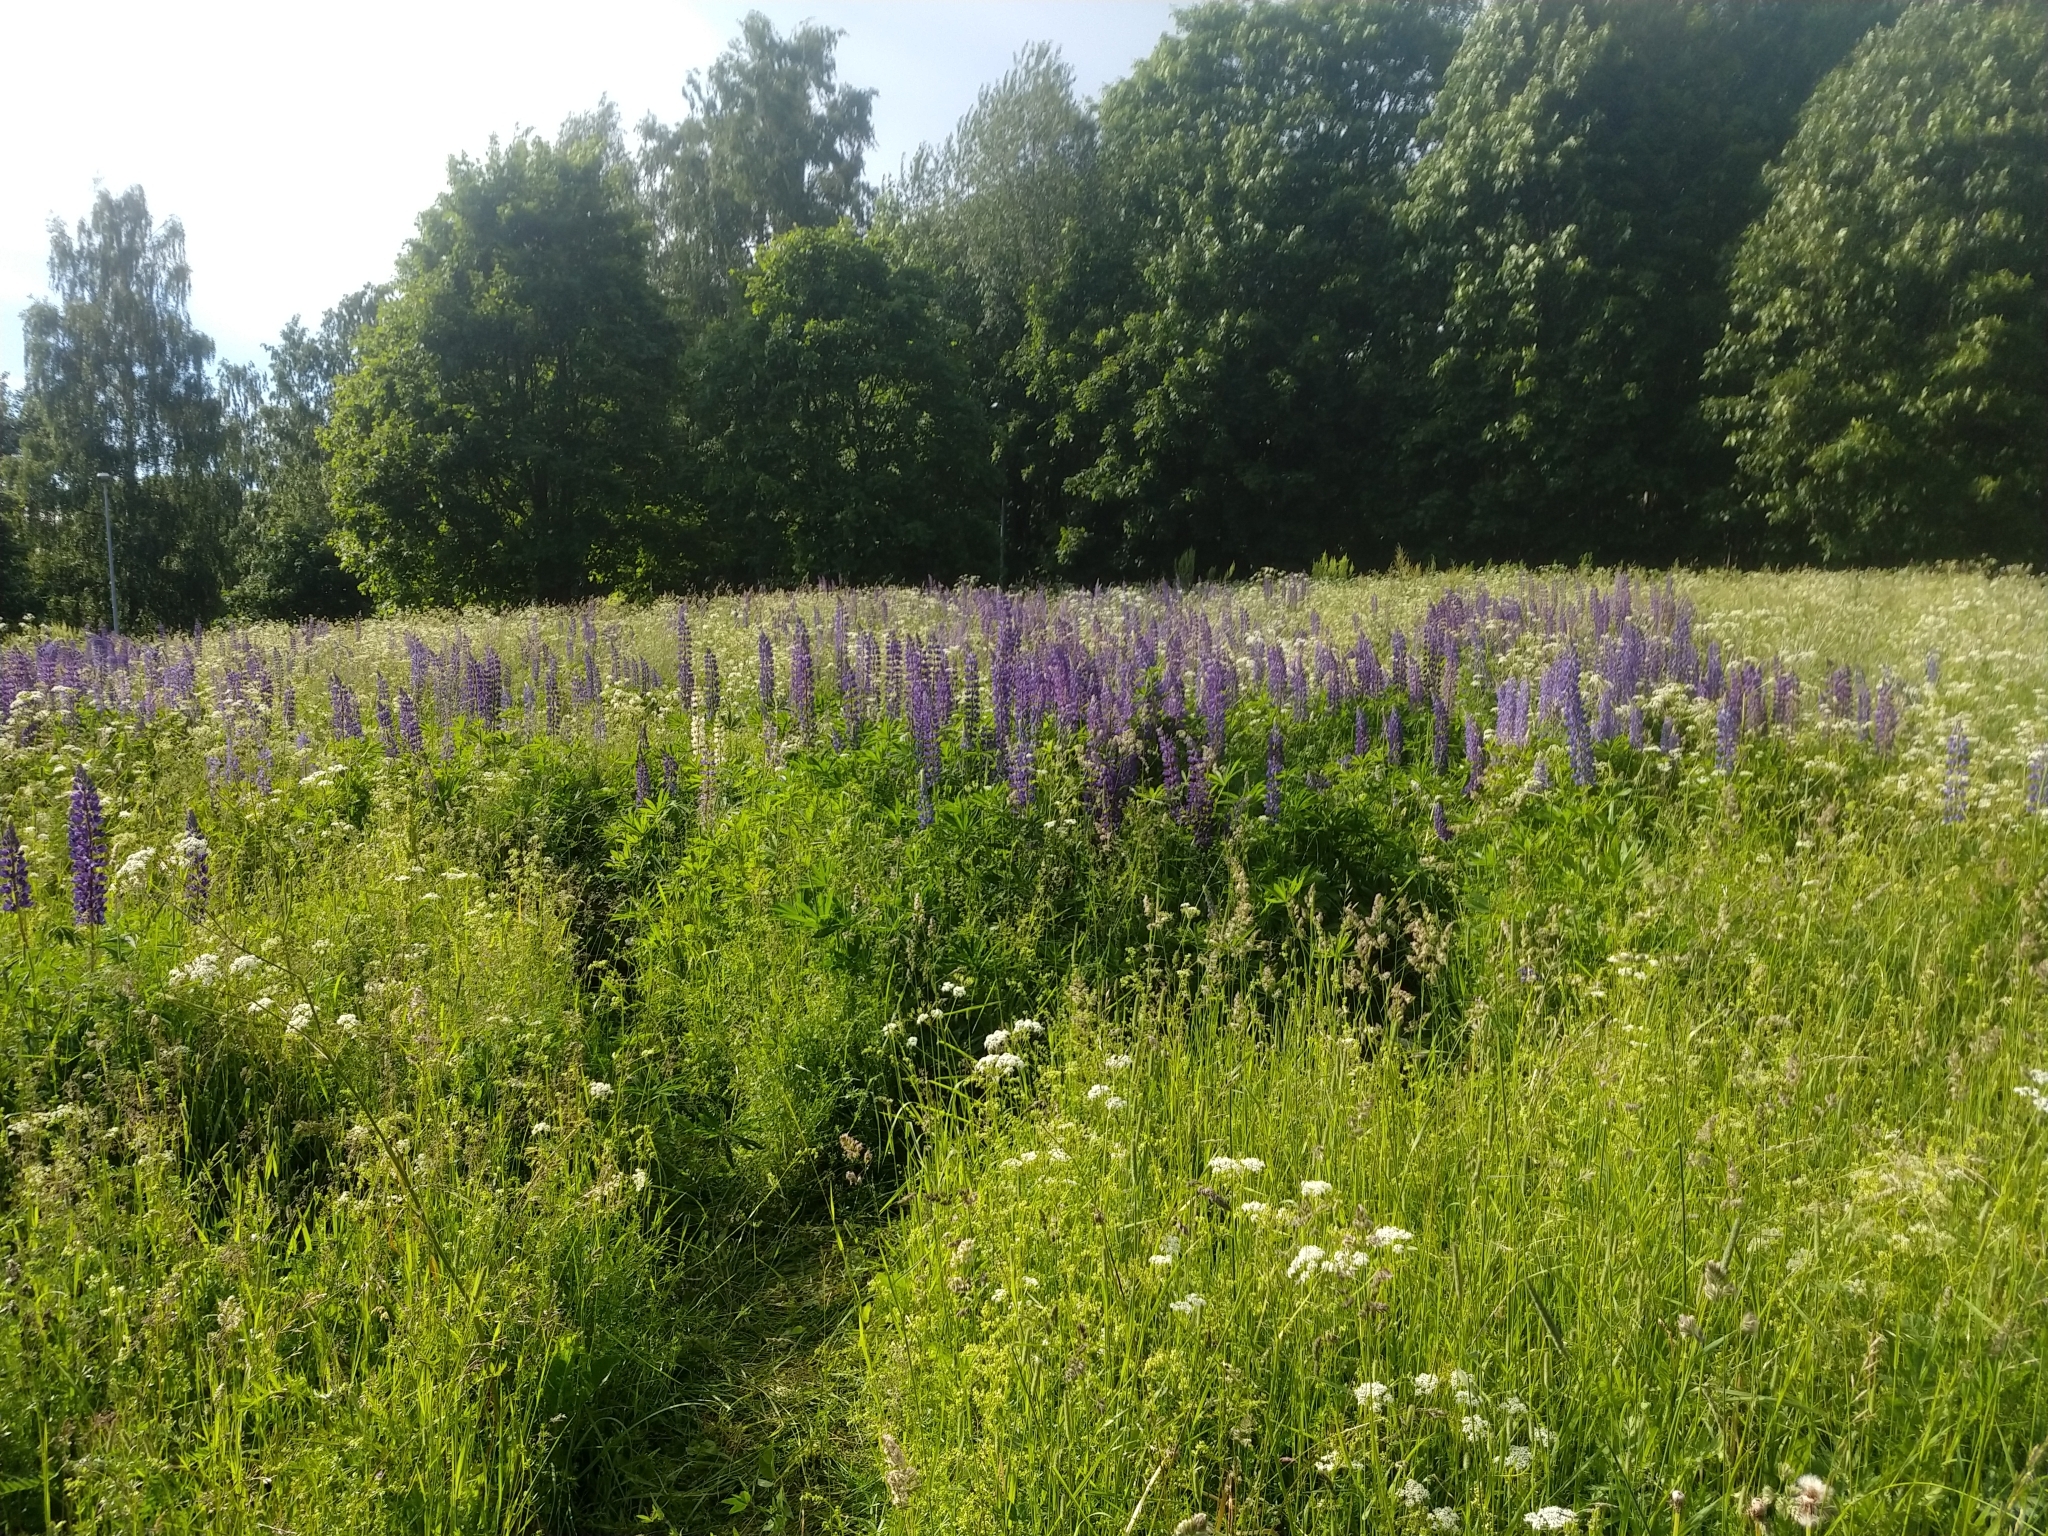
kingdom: Plantae
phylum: Tracheophyta
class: Magnoliopsida
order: Fabales
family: Fabaceae
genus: Lupinus
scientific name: Lupinus polyphyllus
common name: Garden lupin
